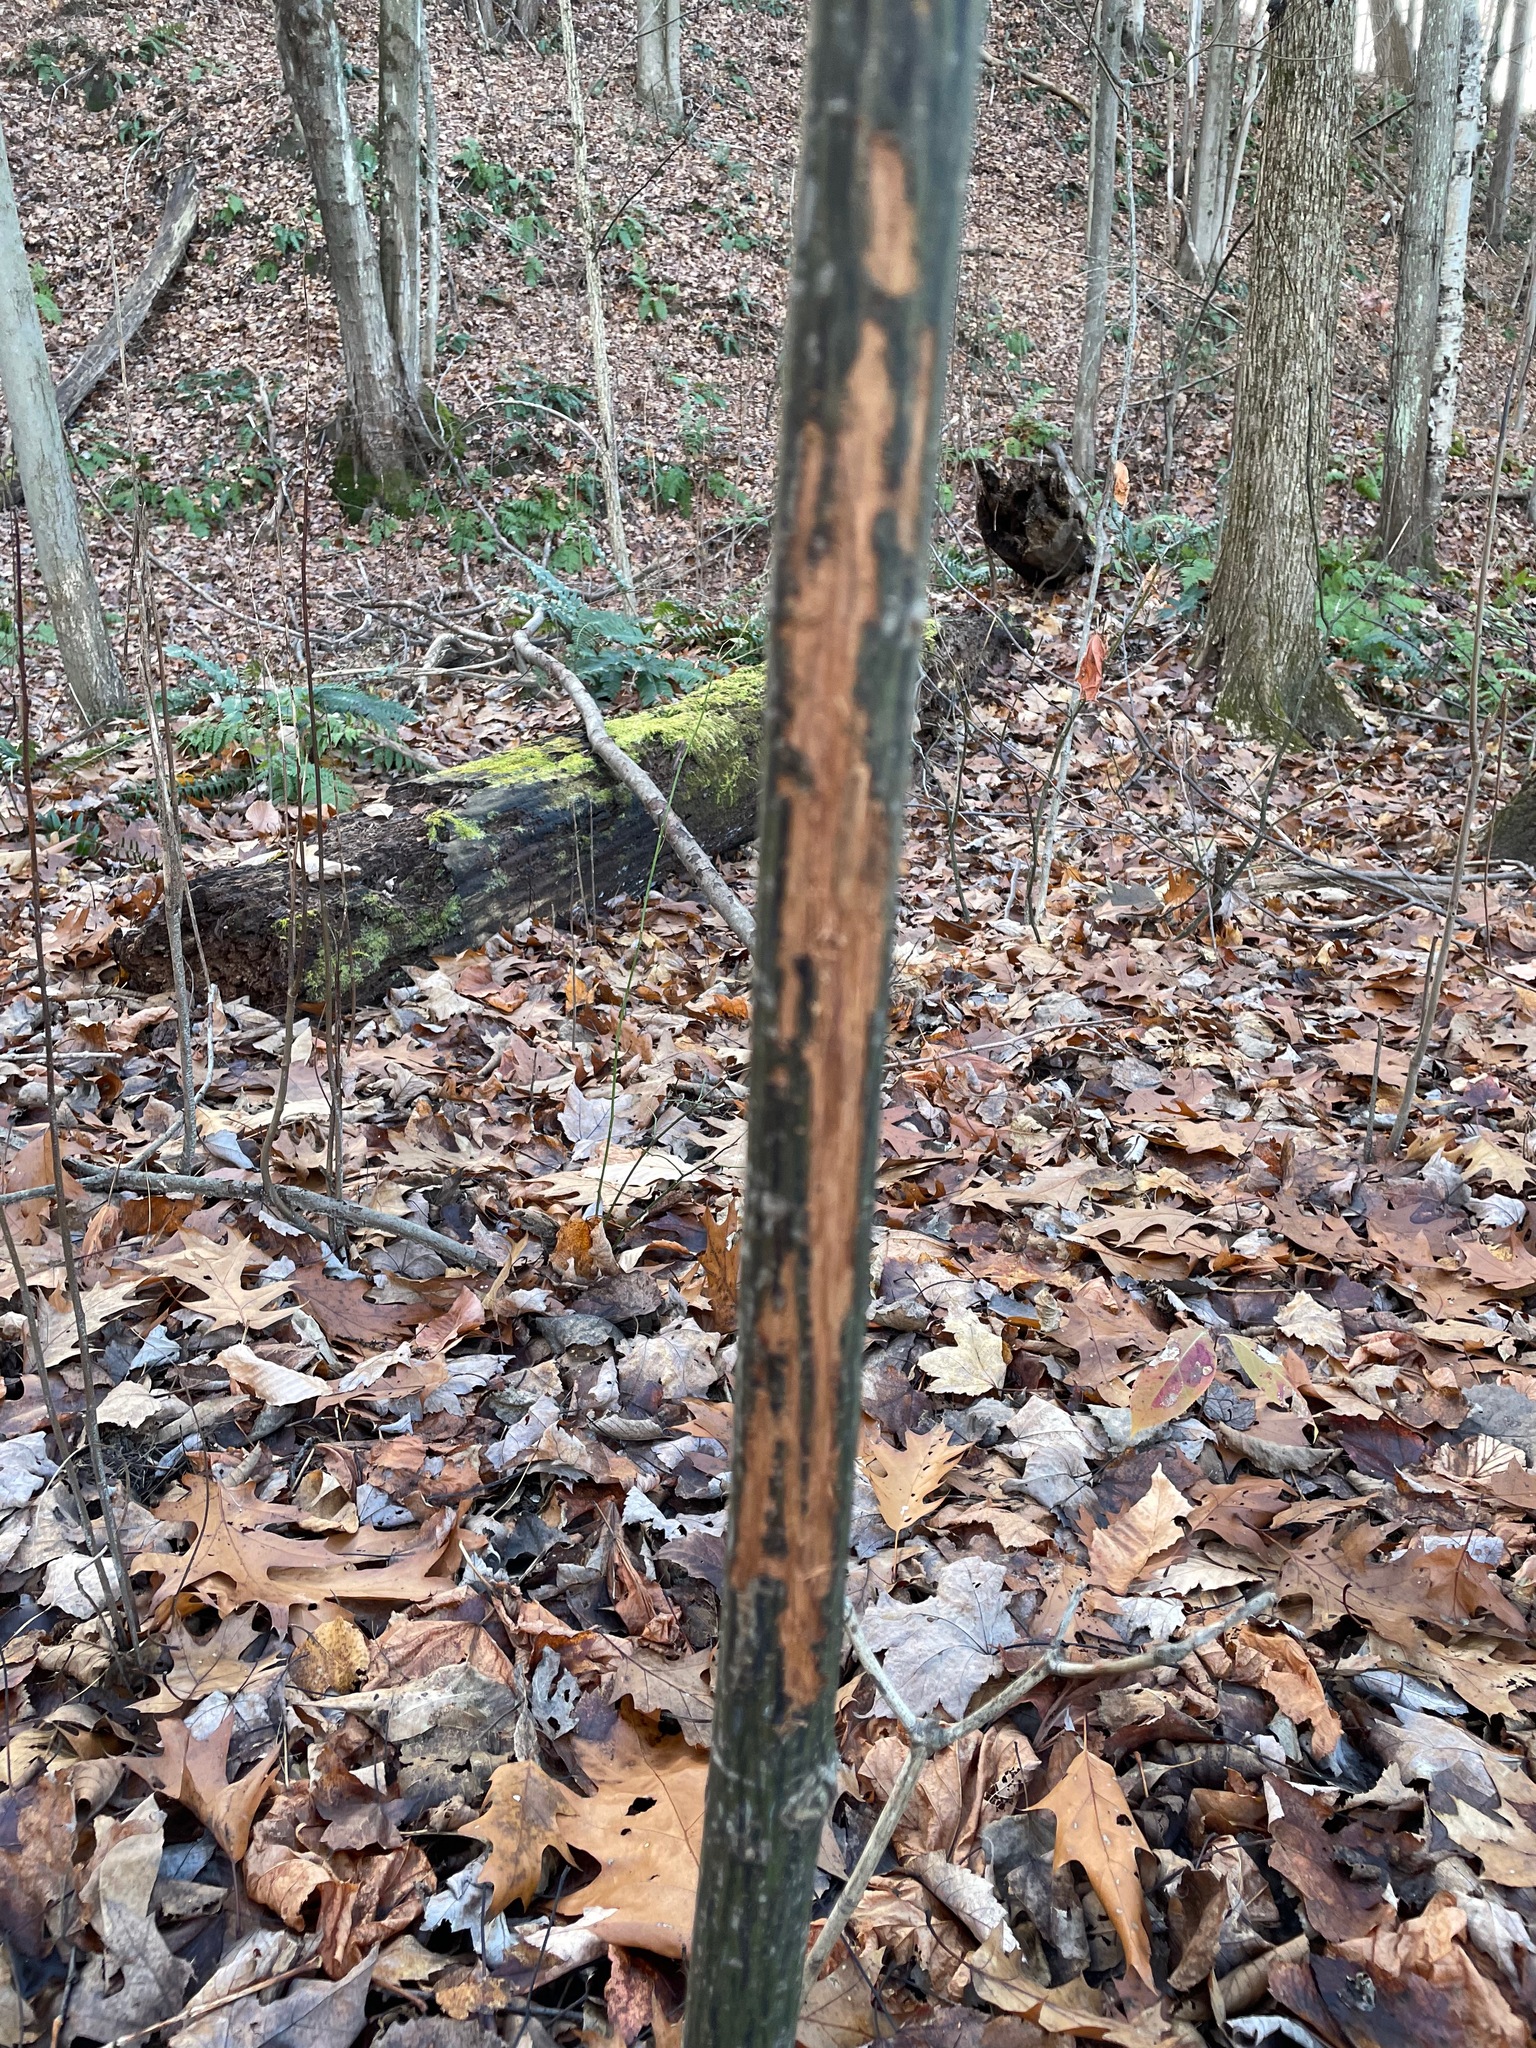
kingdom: Animalia
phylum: Chordata
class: Mammalia
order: Artiodactyla
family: Cervidae
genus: Odocoileus
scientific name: Odocoileus virginianus
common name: White-tailed deer
